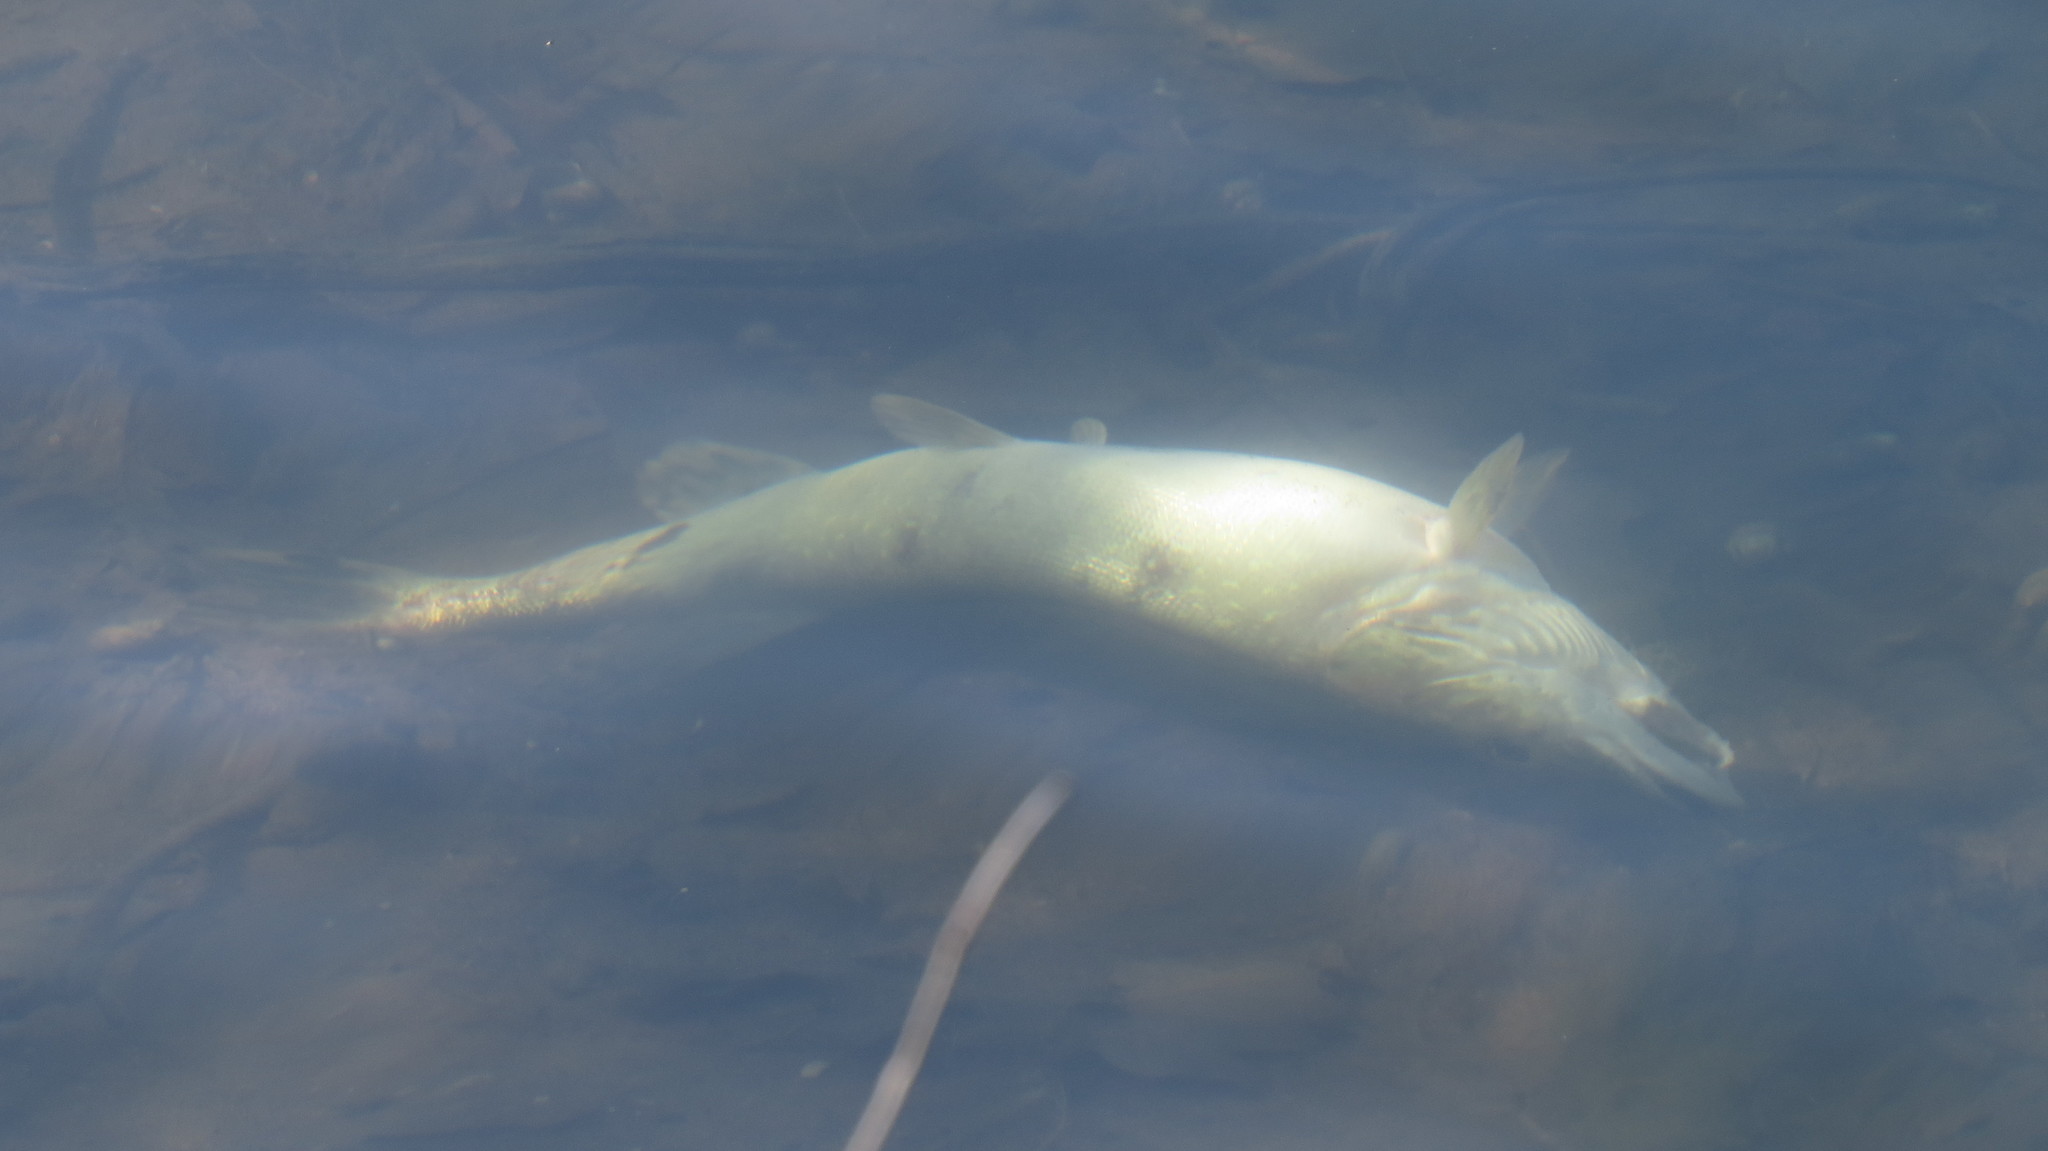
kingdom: Animalia
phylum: Chordata
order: Esociformes
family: Esocidae
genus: Esox
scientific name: Esox lucius
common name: Northern pike
